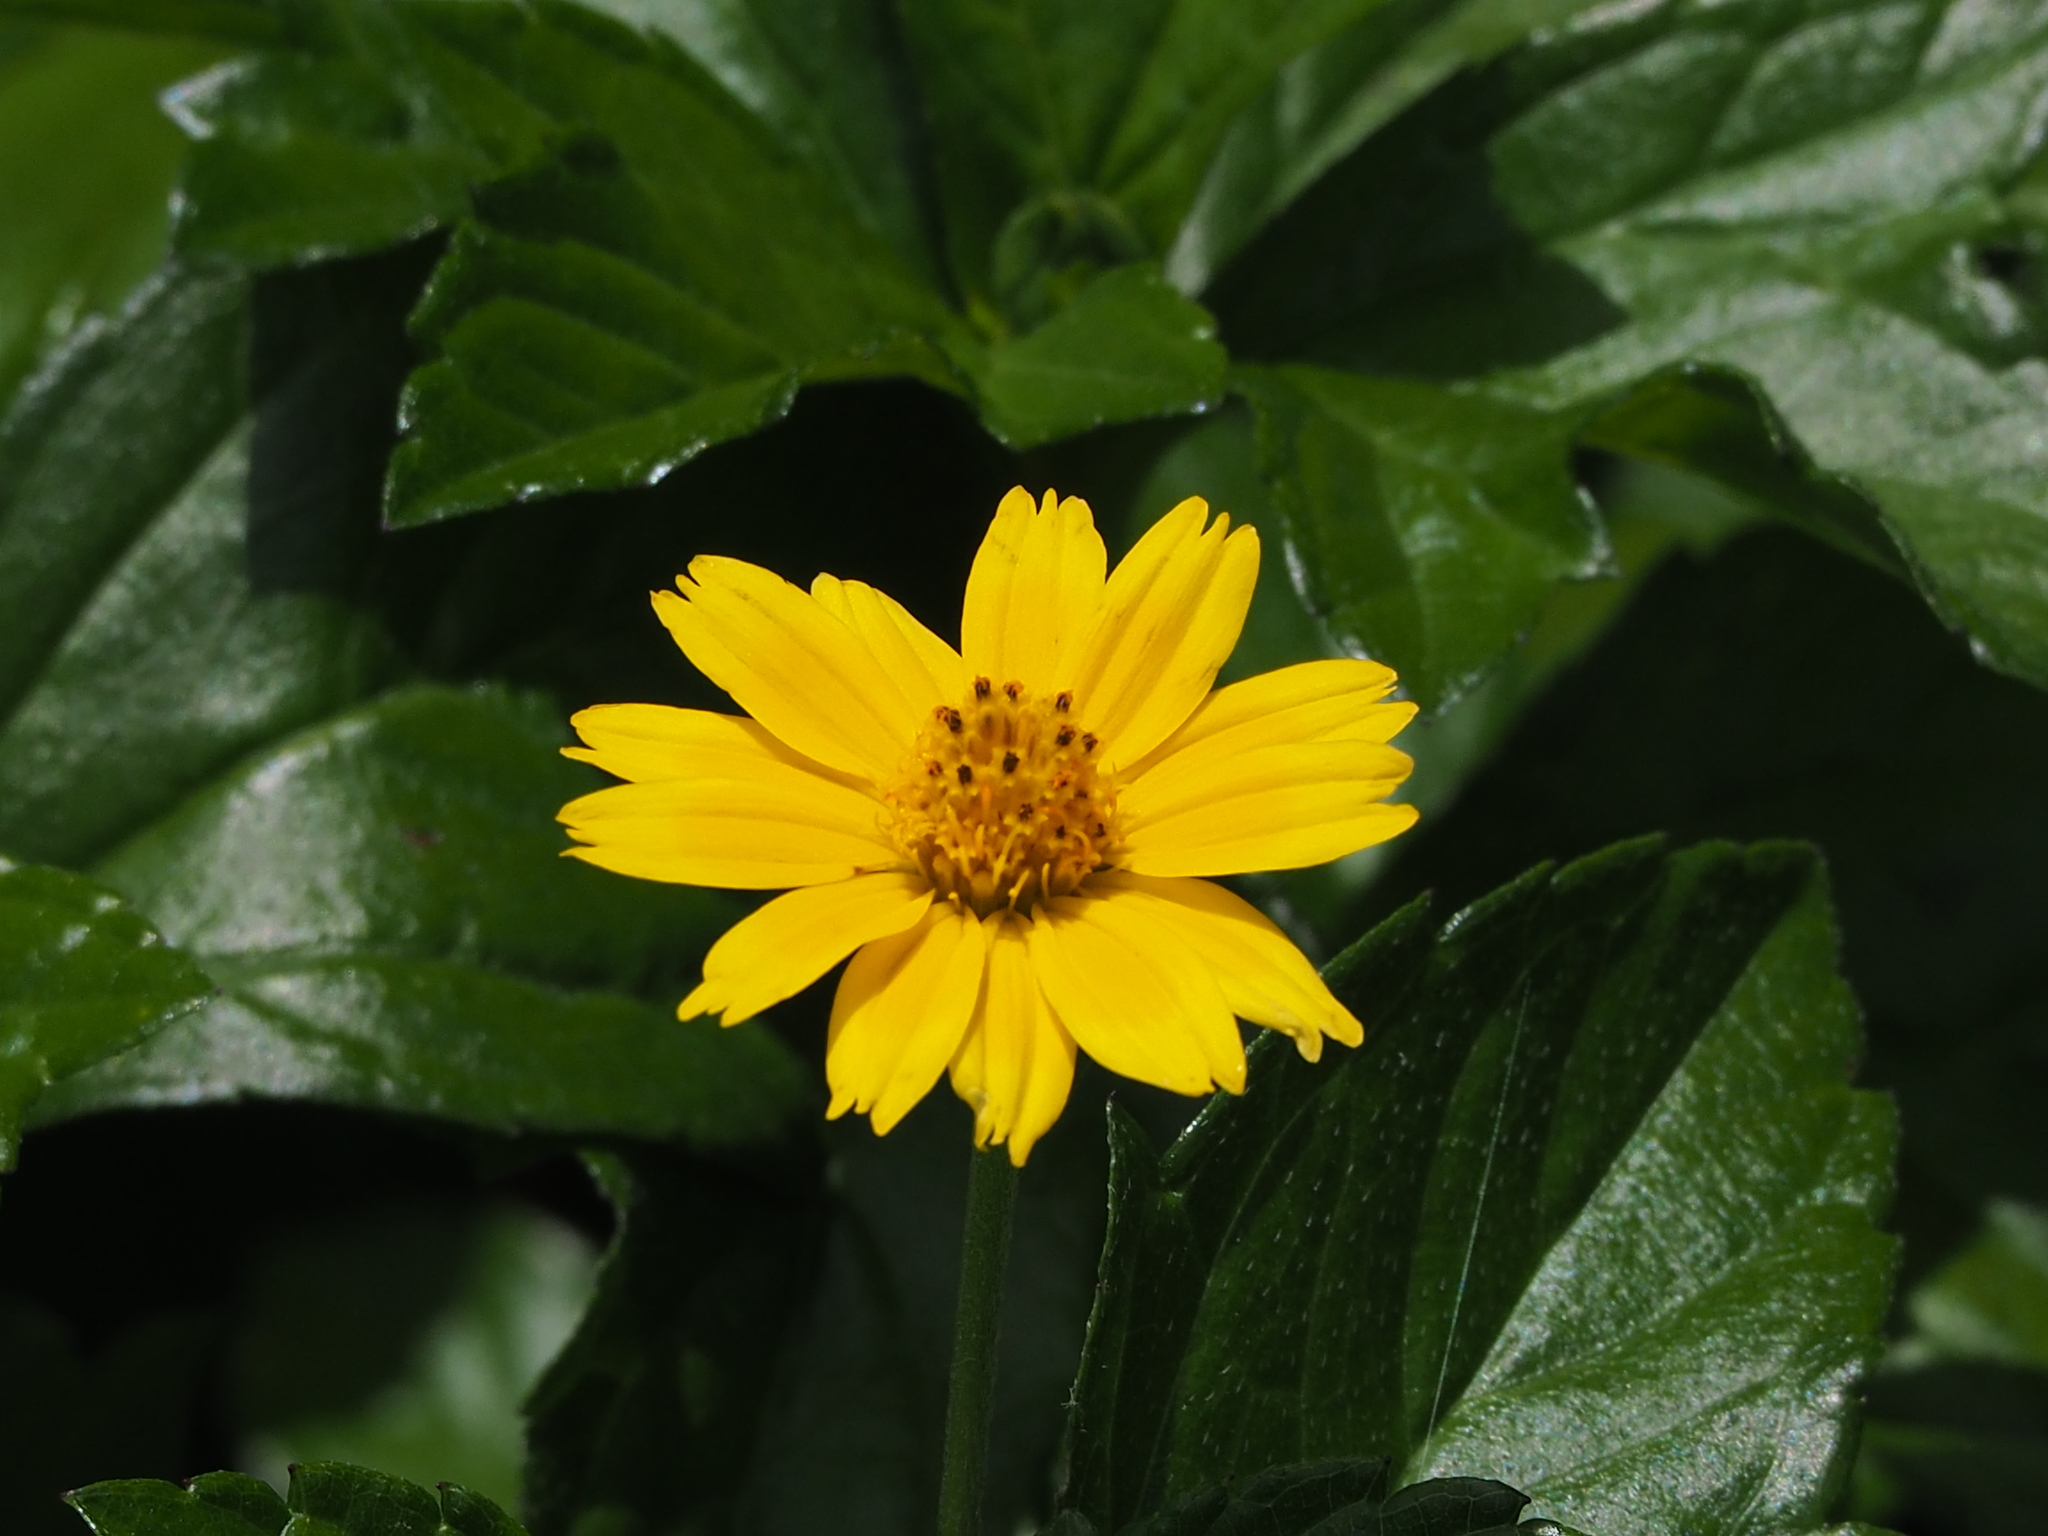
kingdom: Plantae
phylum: Tracheophyta
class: Magnoliopsida
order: Asterales
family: Asteraceae
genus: Sphagneticola
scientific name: Sphagneticola trilobata
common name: Bay biscayne creeping-oxeye
